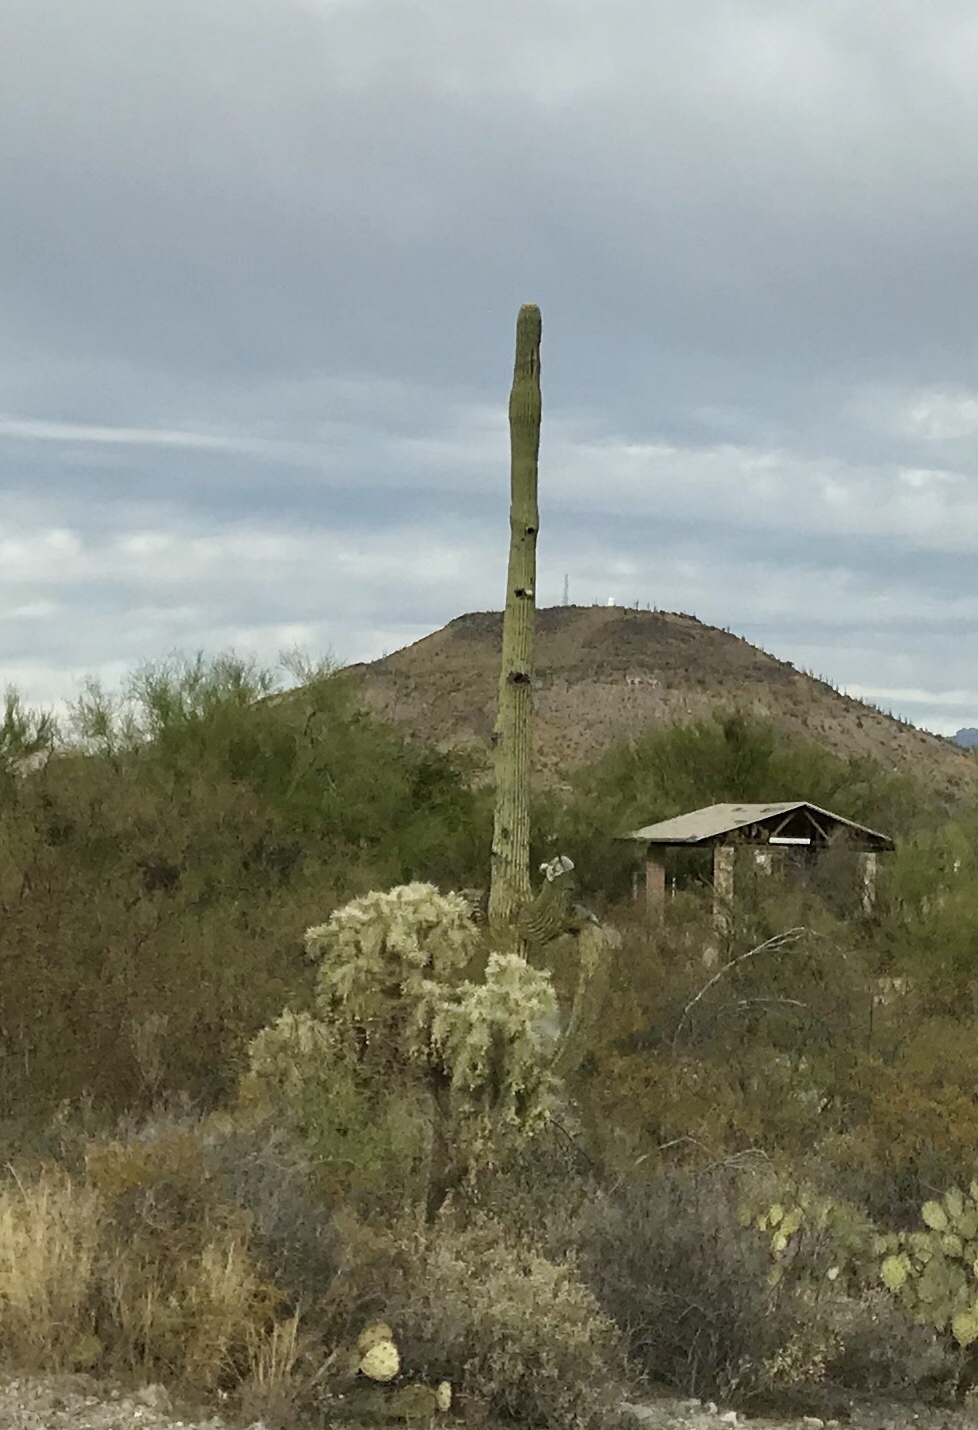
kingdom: Plantae
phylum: Tracheophyta
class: Magnoliopsida
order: Caryophyllales
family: Cactaceae
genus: Carnegiea
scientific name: Carnegiea gigantea
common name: Saguaro
